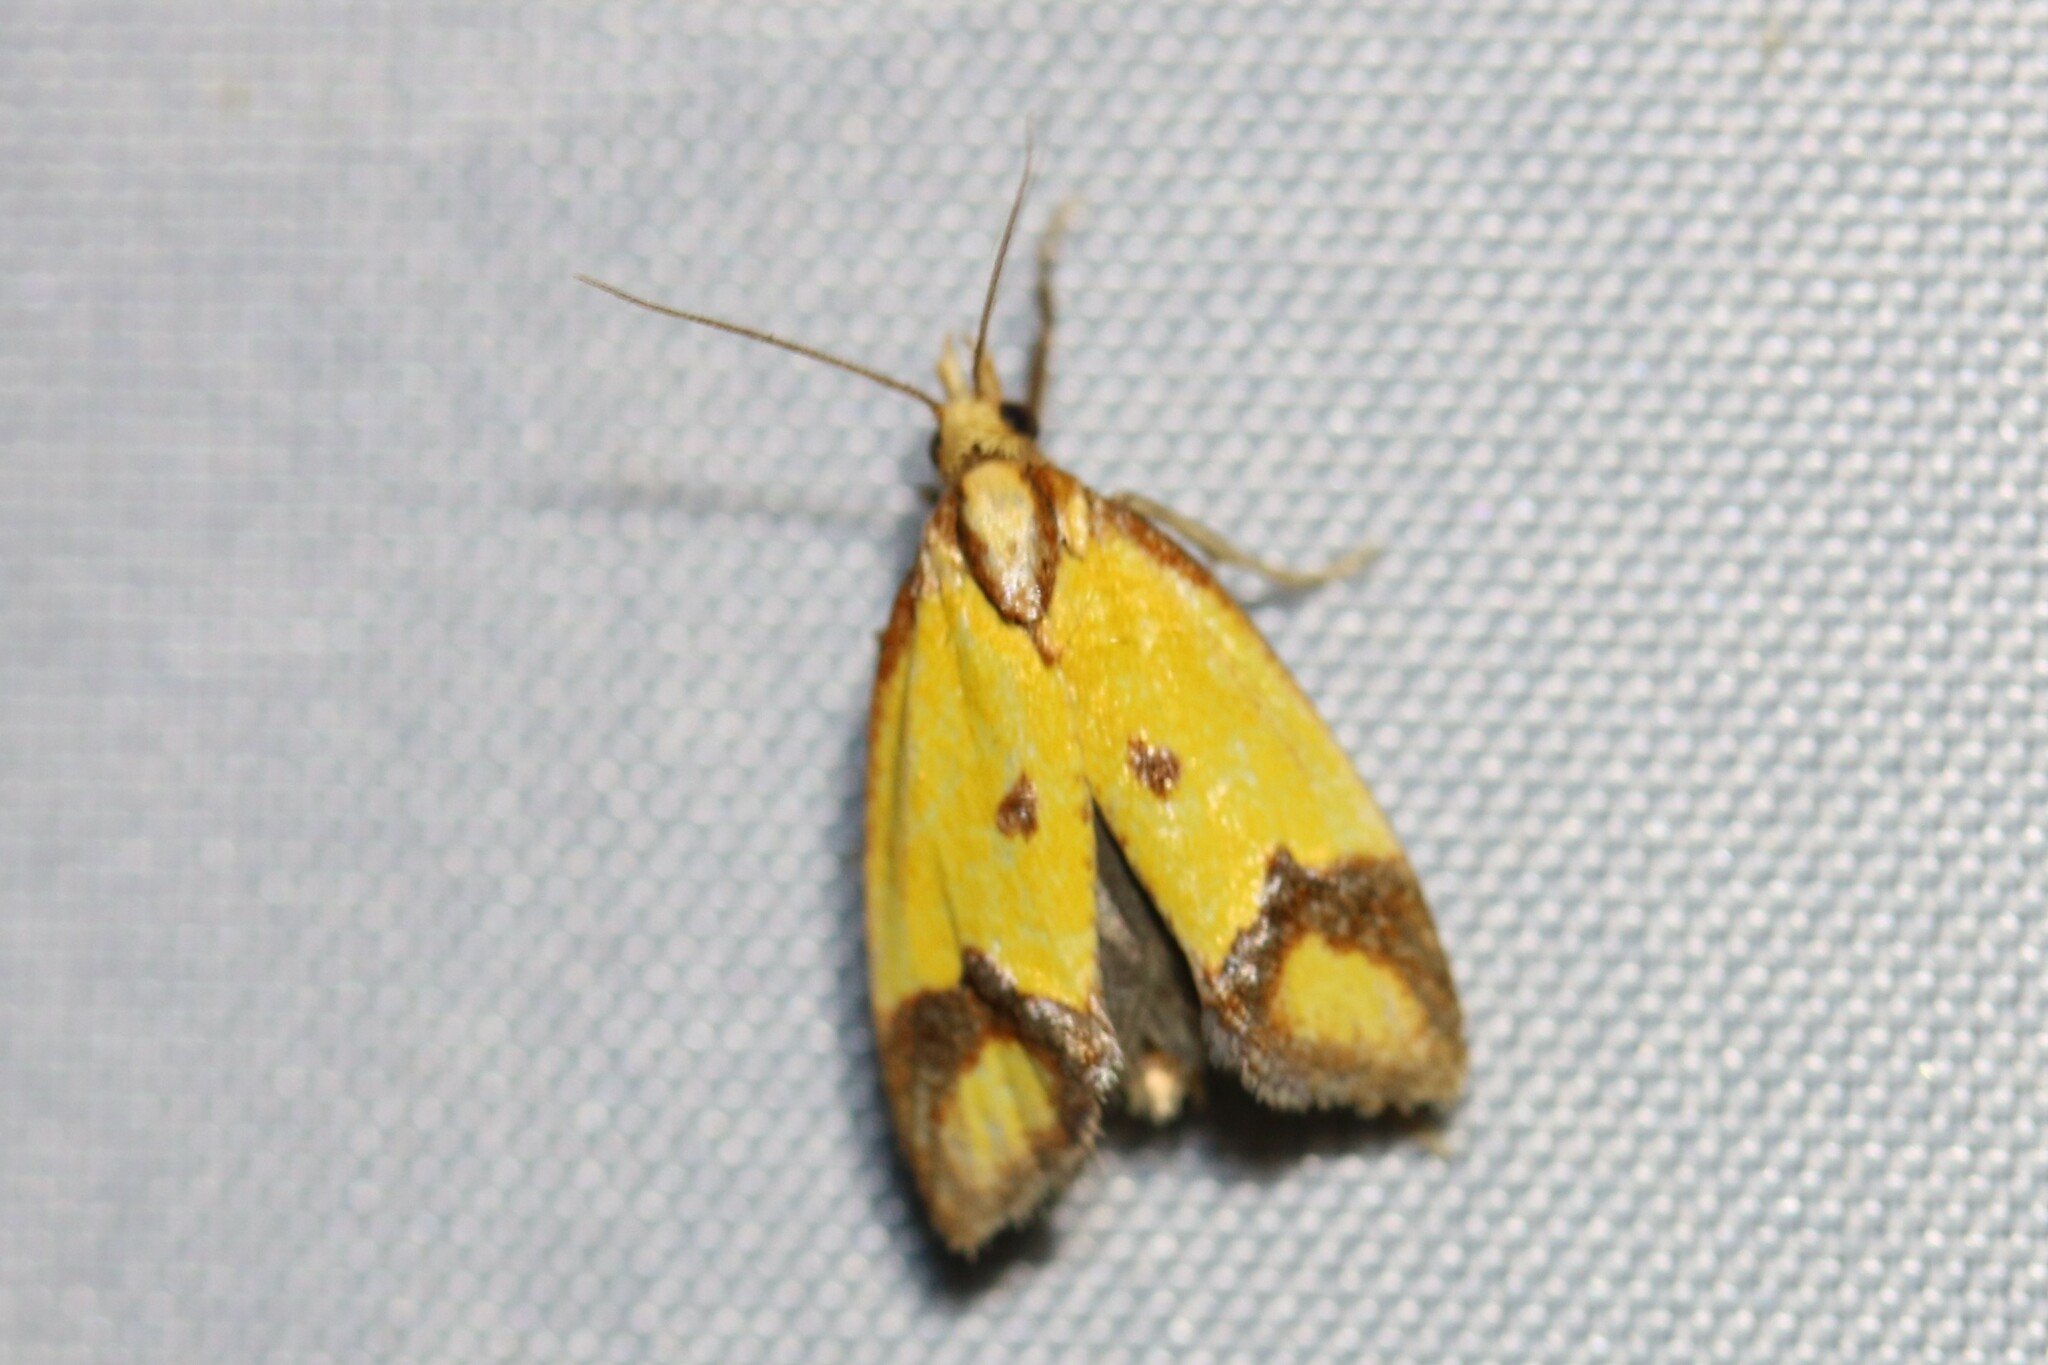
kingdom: Animalia
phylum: Arthropoda
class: Insecta
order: Lepidoptera
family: Tortricidae
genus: Agapeta
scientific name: Agapeta zoegana
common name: Sulfur knapweed root moth
